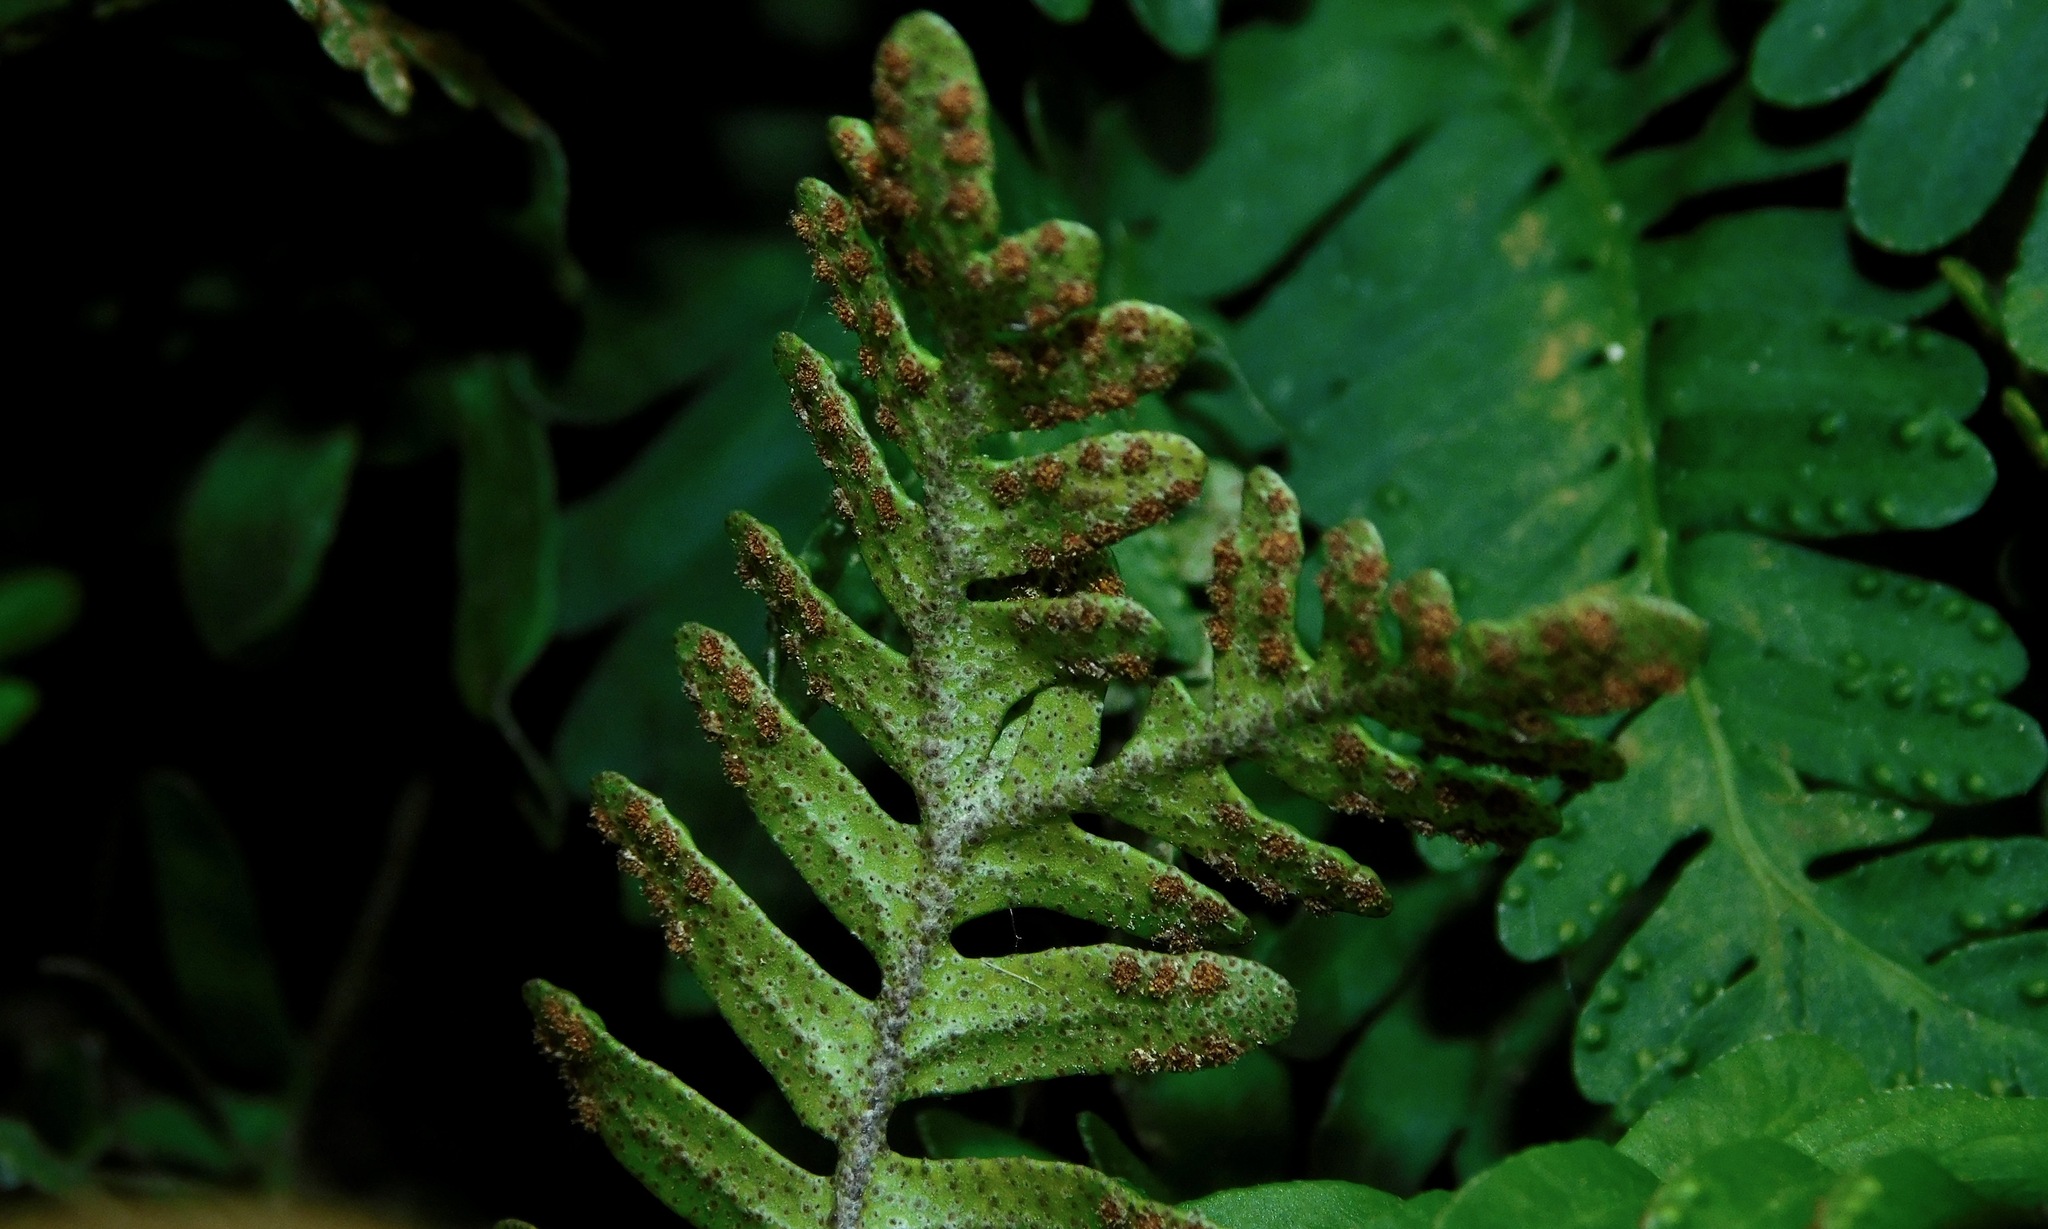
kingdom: Plantae
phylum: Tracheophyta
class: Polypodiopsida
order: Polypodiales
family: Polypodiaceae
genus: Pleopeltis
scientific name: Pleopeltis michauxiana
